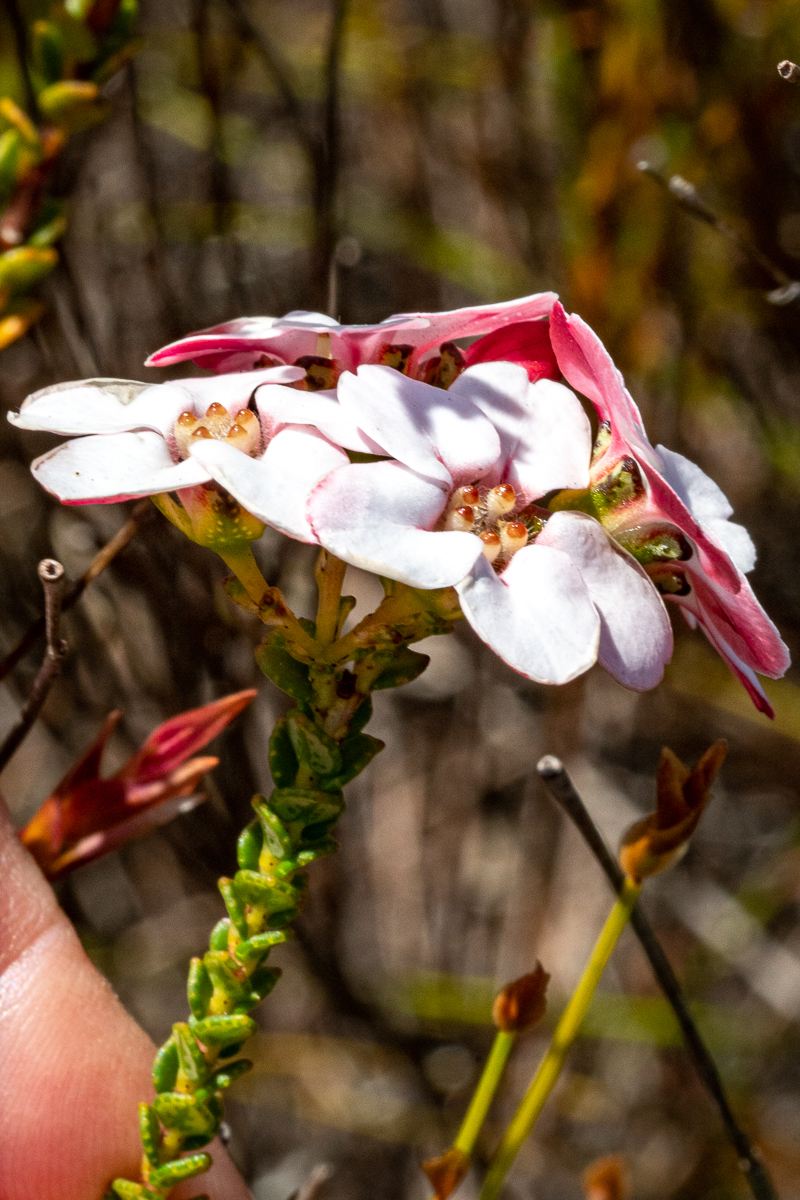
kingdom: Plantae
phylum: Tracheophyta
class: Magnoliopsida
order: Sapindales
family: Rutaceae
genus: Adenandra
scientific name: Adenandra brachyphylla
